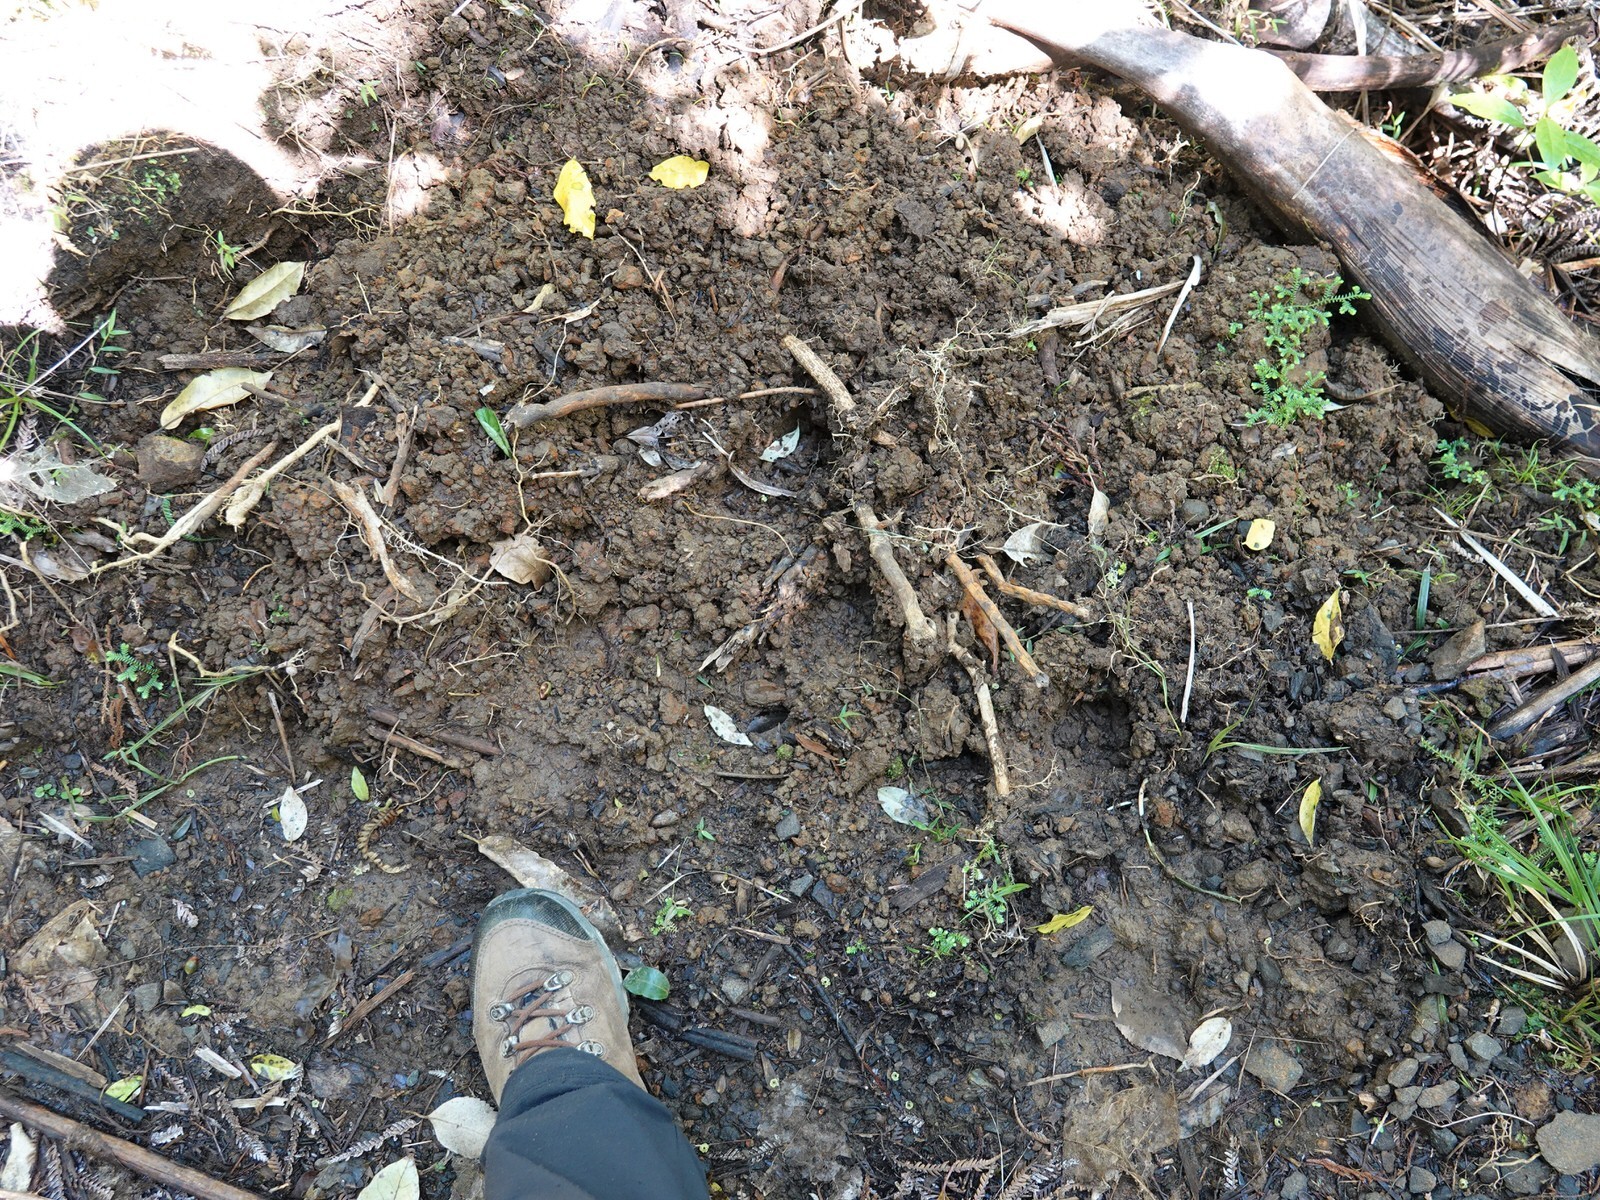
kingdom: Animalia
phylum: Chordata
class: Mammalia
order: Artiodactyla
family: Suidae
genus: Sus
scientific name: Sus scrofa
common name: Wild boar
